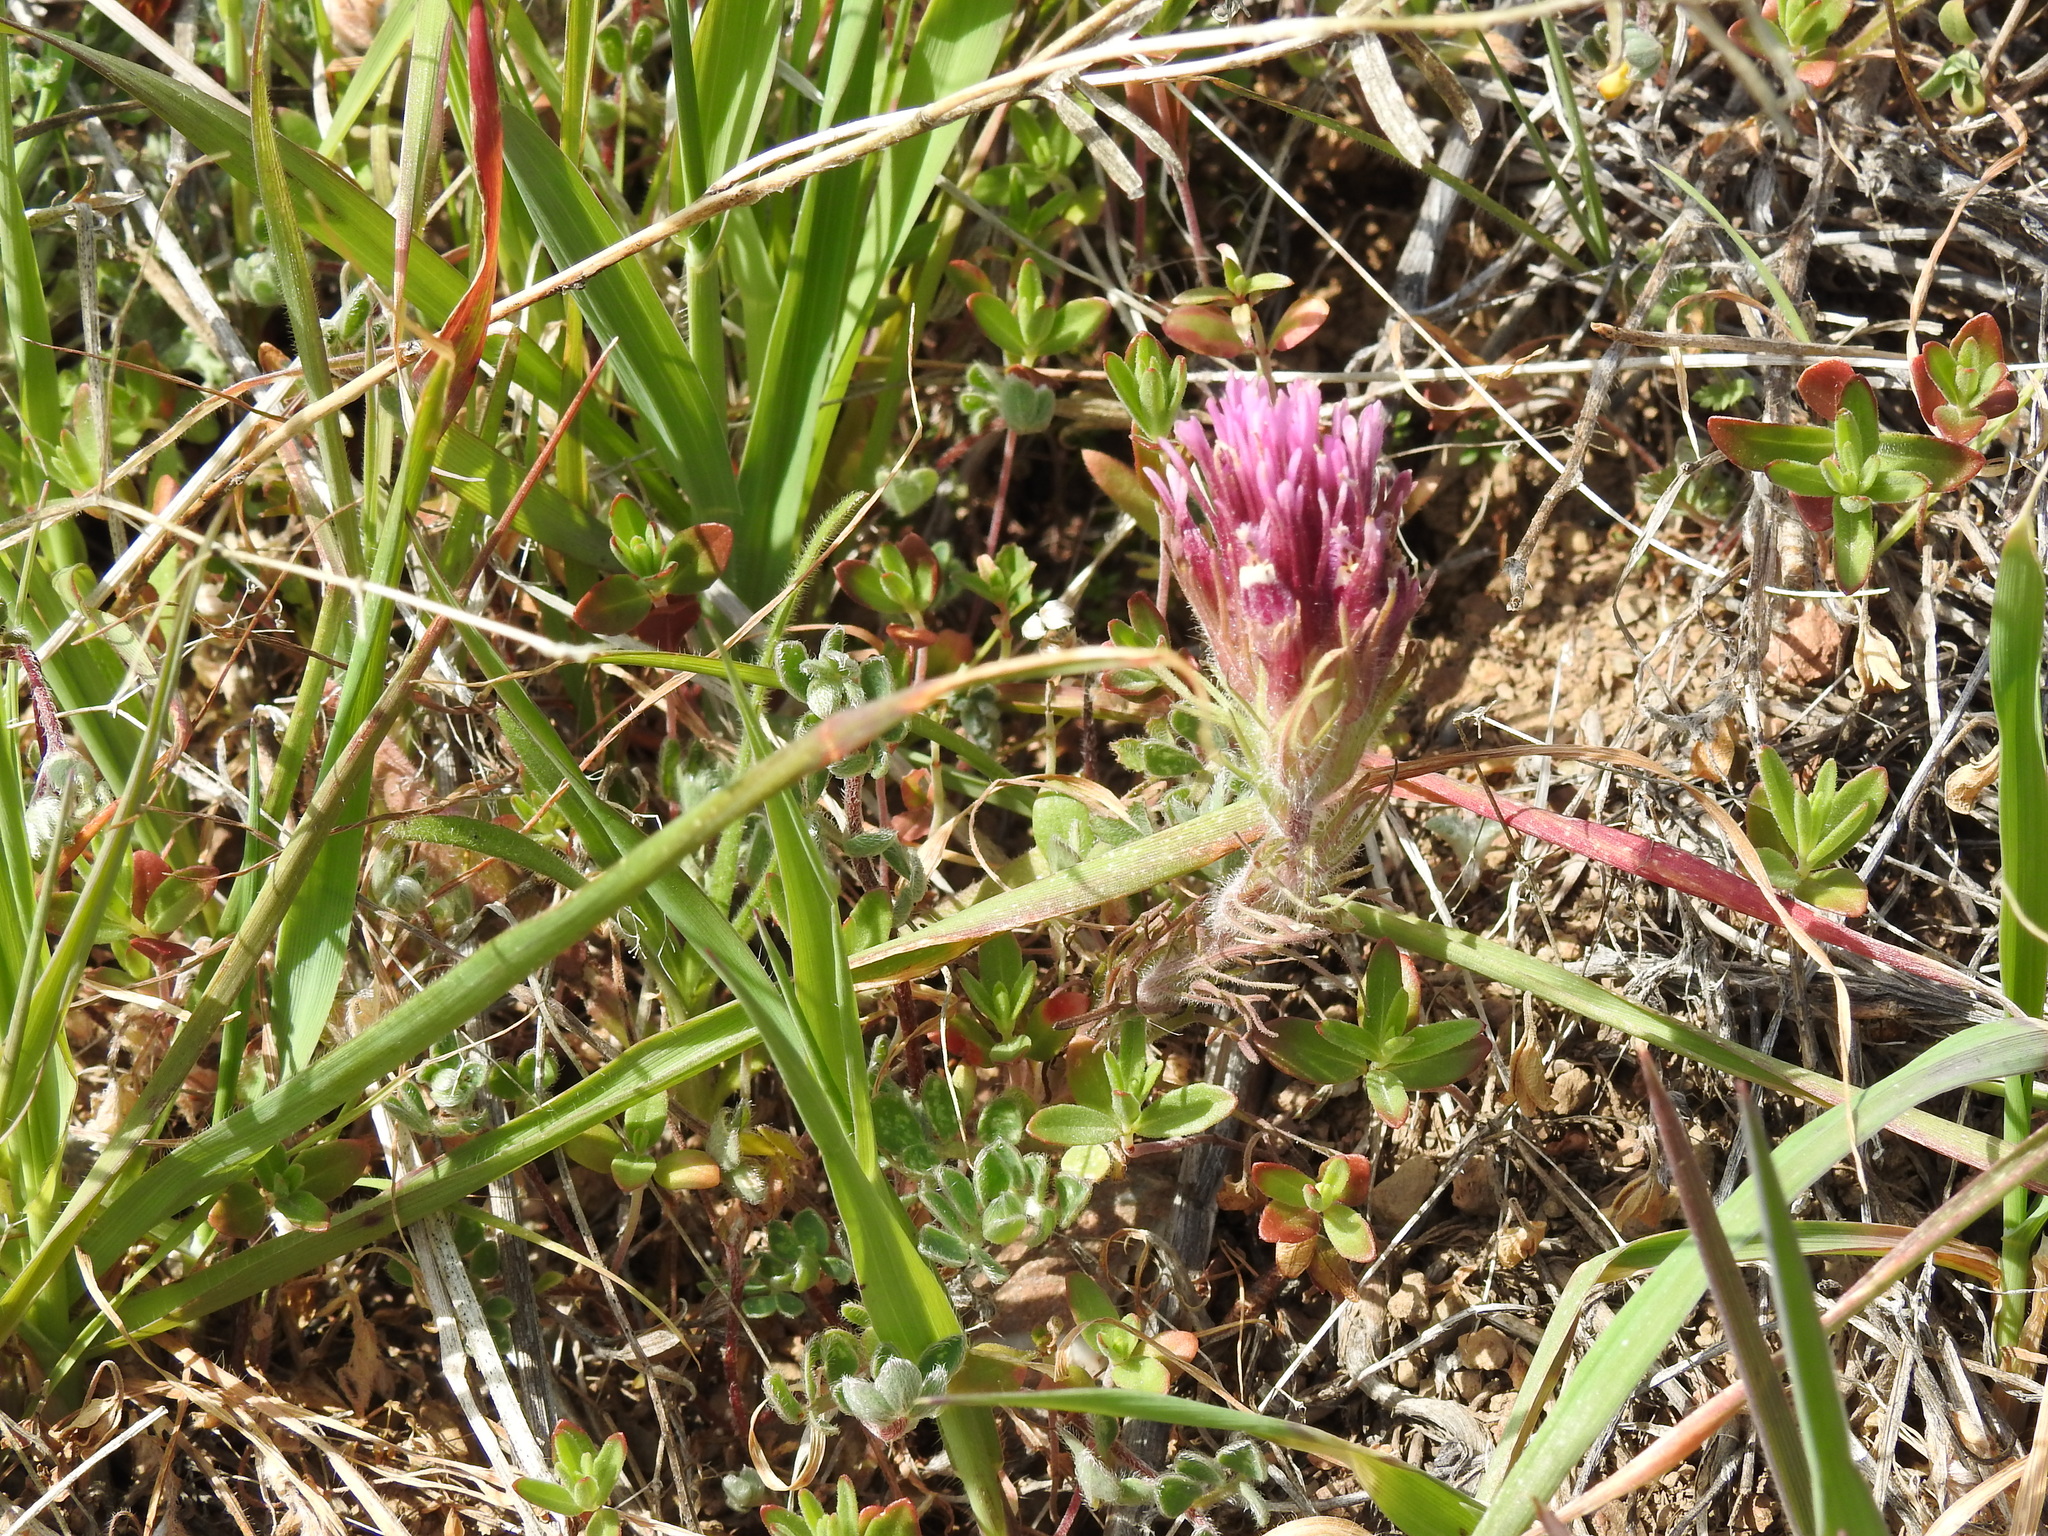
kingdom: Plantae
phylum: Tracheophyta
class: Magnoliopsida
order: Lamiales
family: Orobanchaceae
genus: Castilleja
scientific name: Castilleja exserta
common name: Purple owl-clover
